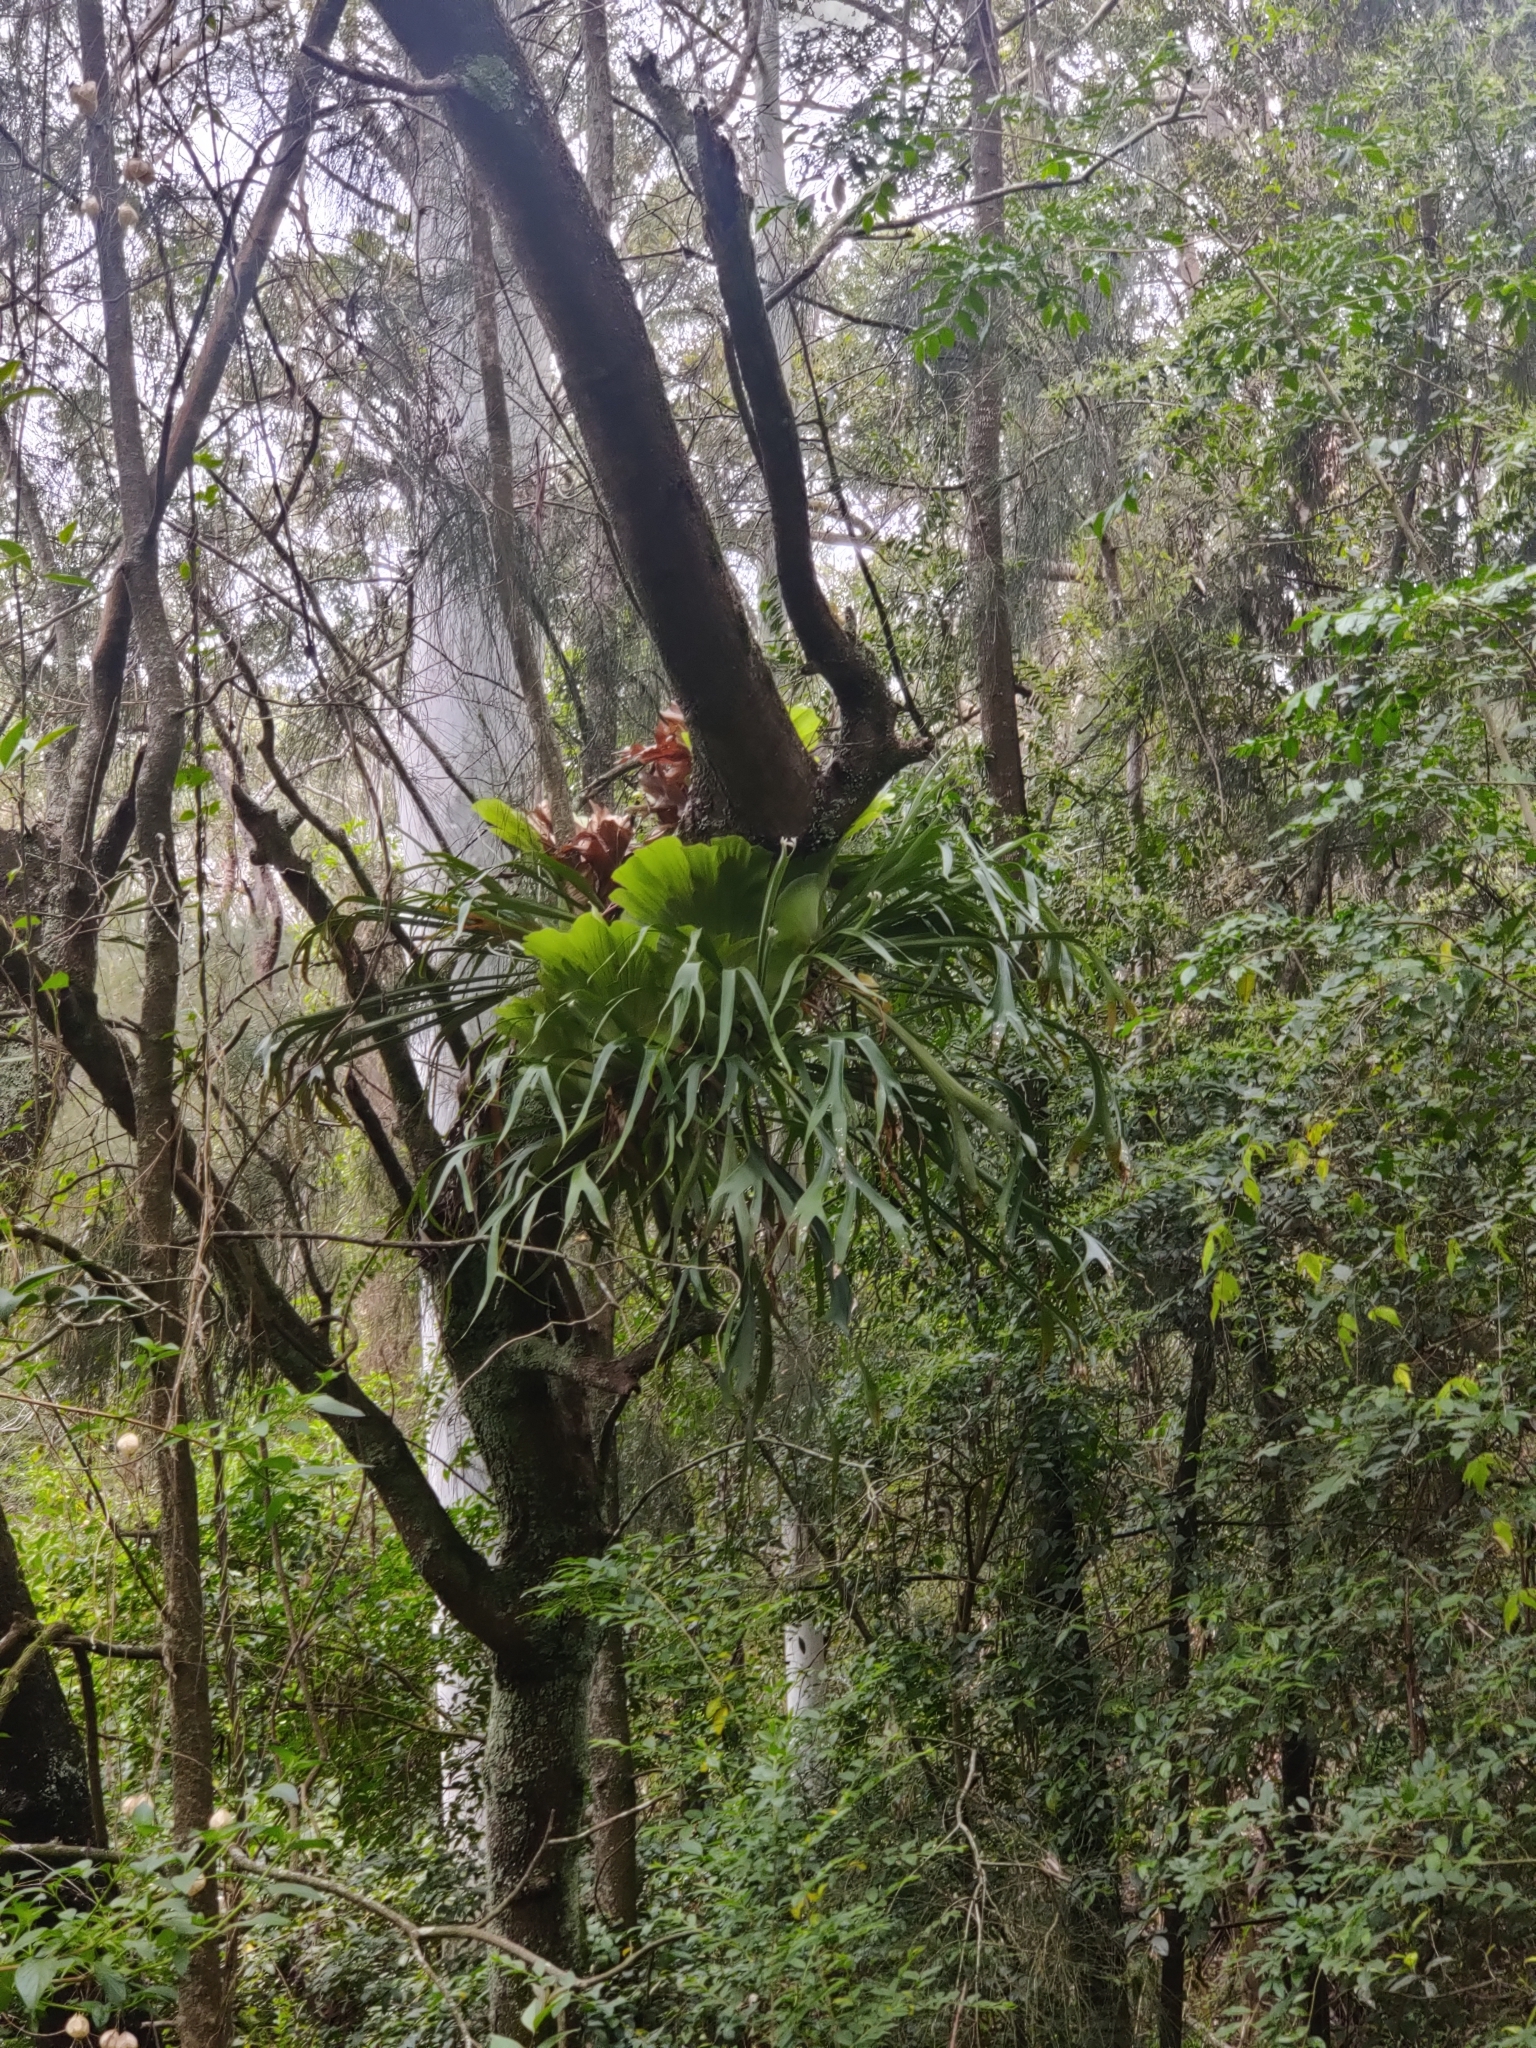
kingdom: Plantae
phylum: Tracheophyta
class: Polypodiopsida
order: Polypodiales
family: Polypodiaceae
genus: Platycerium
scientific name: Platycerium bifurcatum
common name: Elkhorn fern
